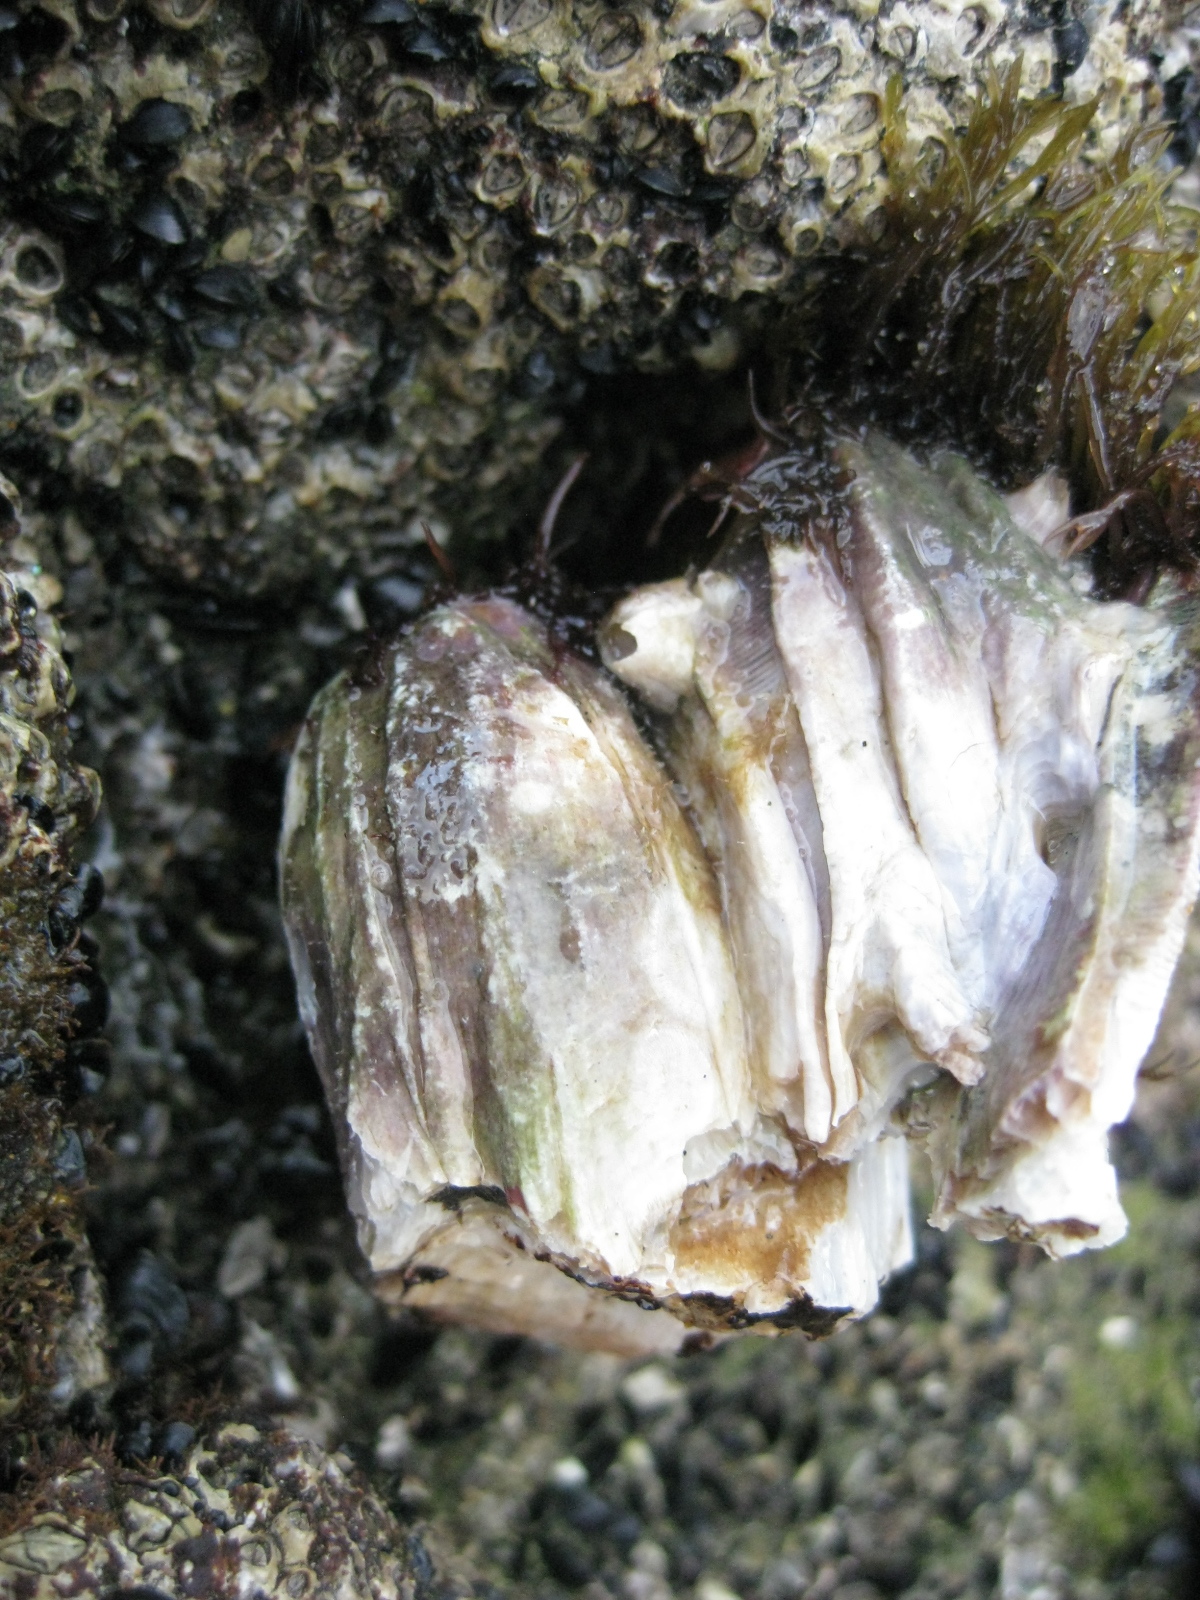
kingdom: Animalia
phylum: Arthropoda
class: Maxillopoda
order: Sessilia
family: Balanidae
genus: Austromegabalanus
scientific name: Austromegabalanus nigrescens
